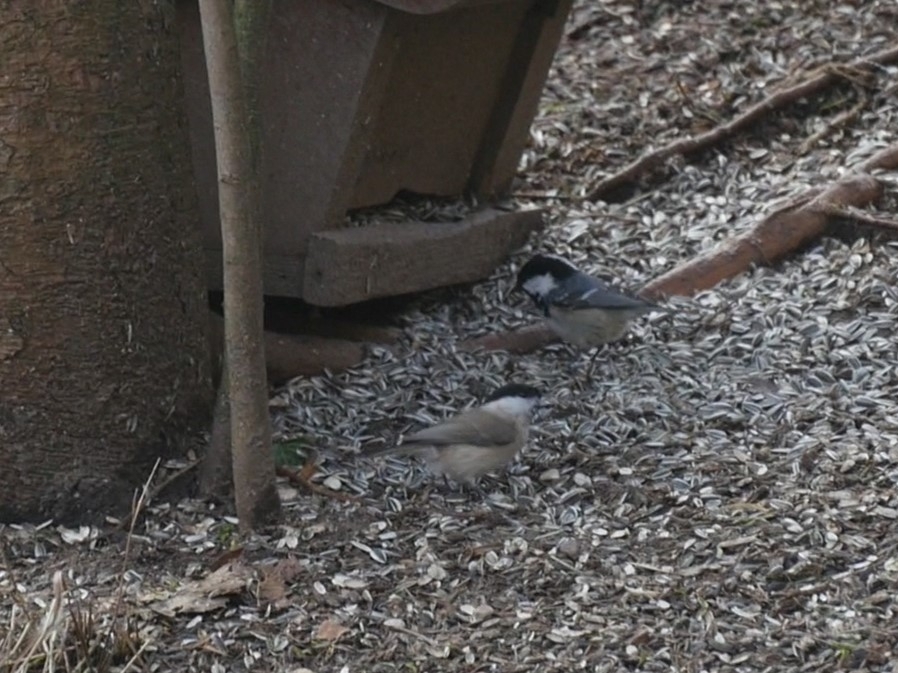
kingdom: Animalia
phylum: Chordata
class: Aves
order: Passeriformes
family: Paridae
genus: Periparus
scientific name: Periparus ater
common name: Coal tit
